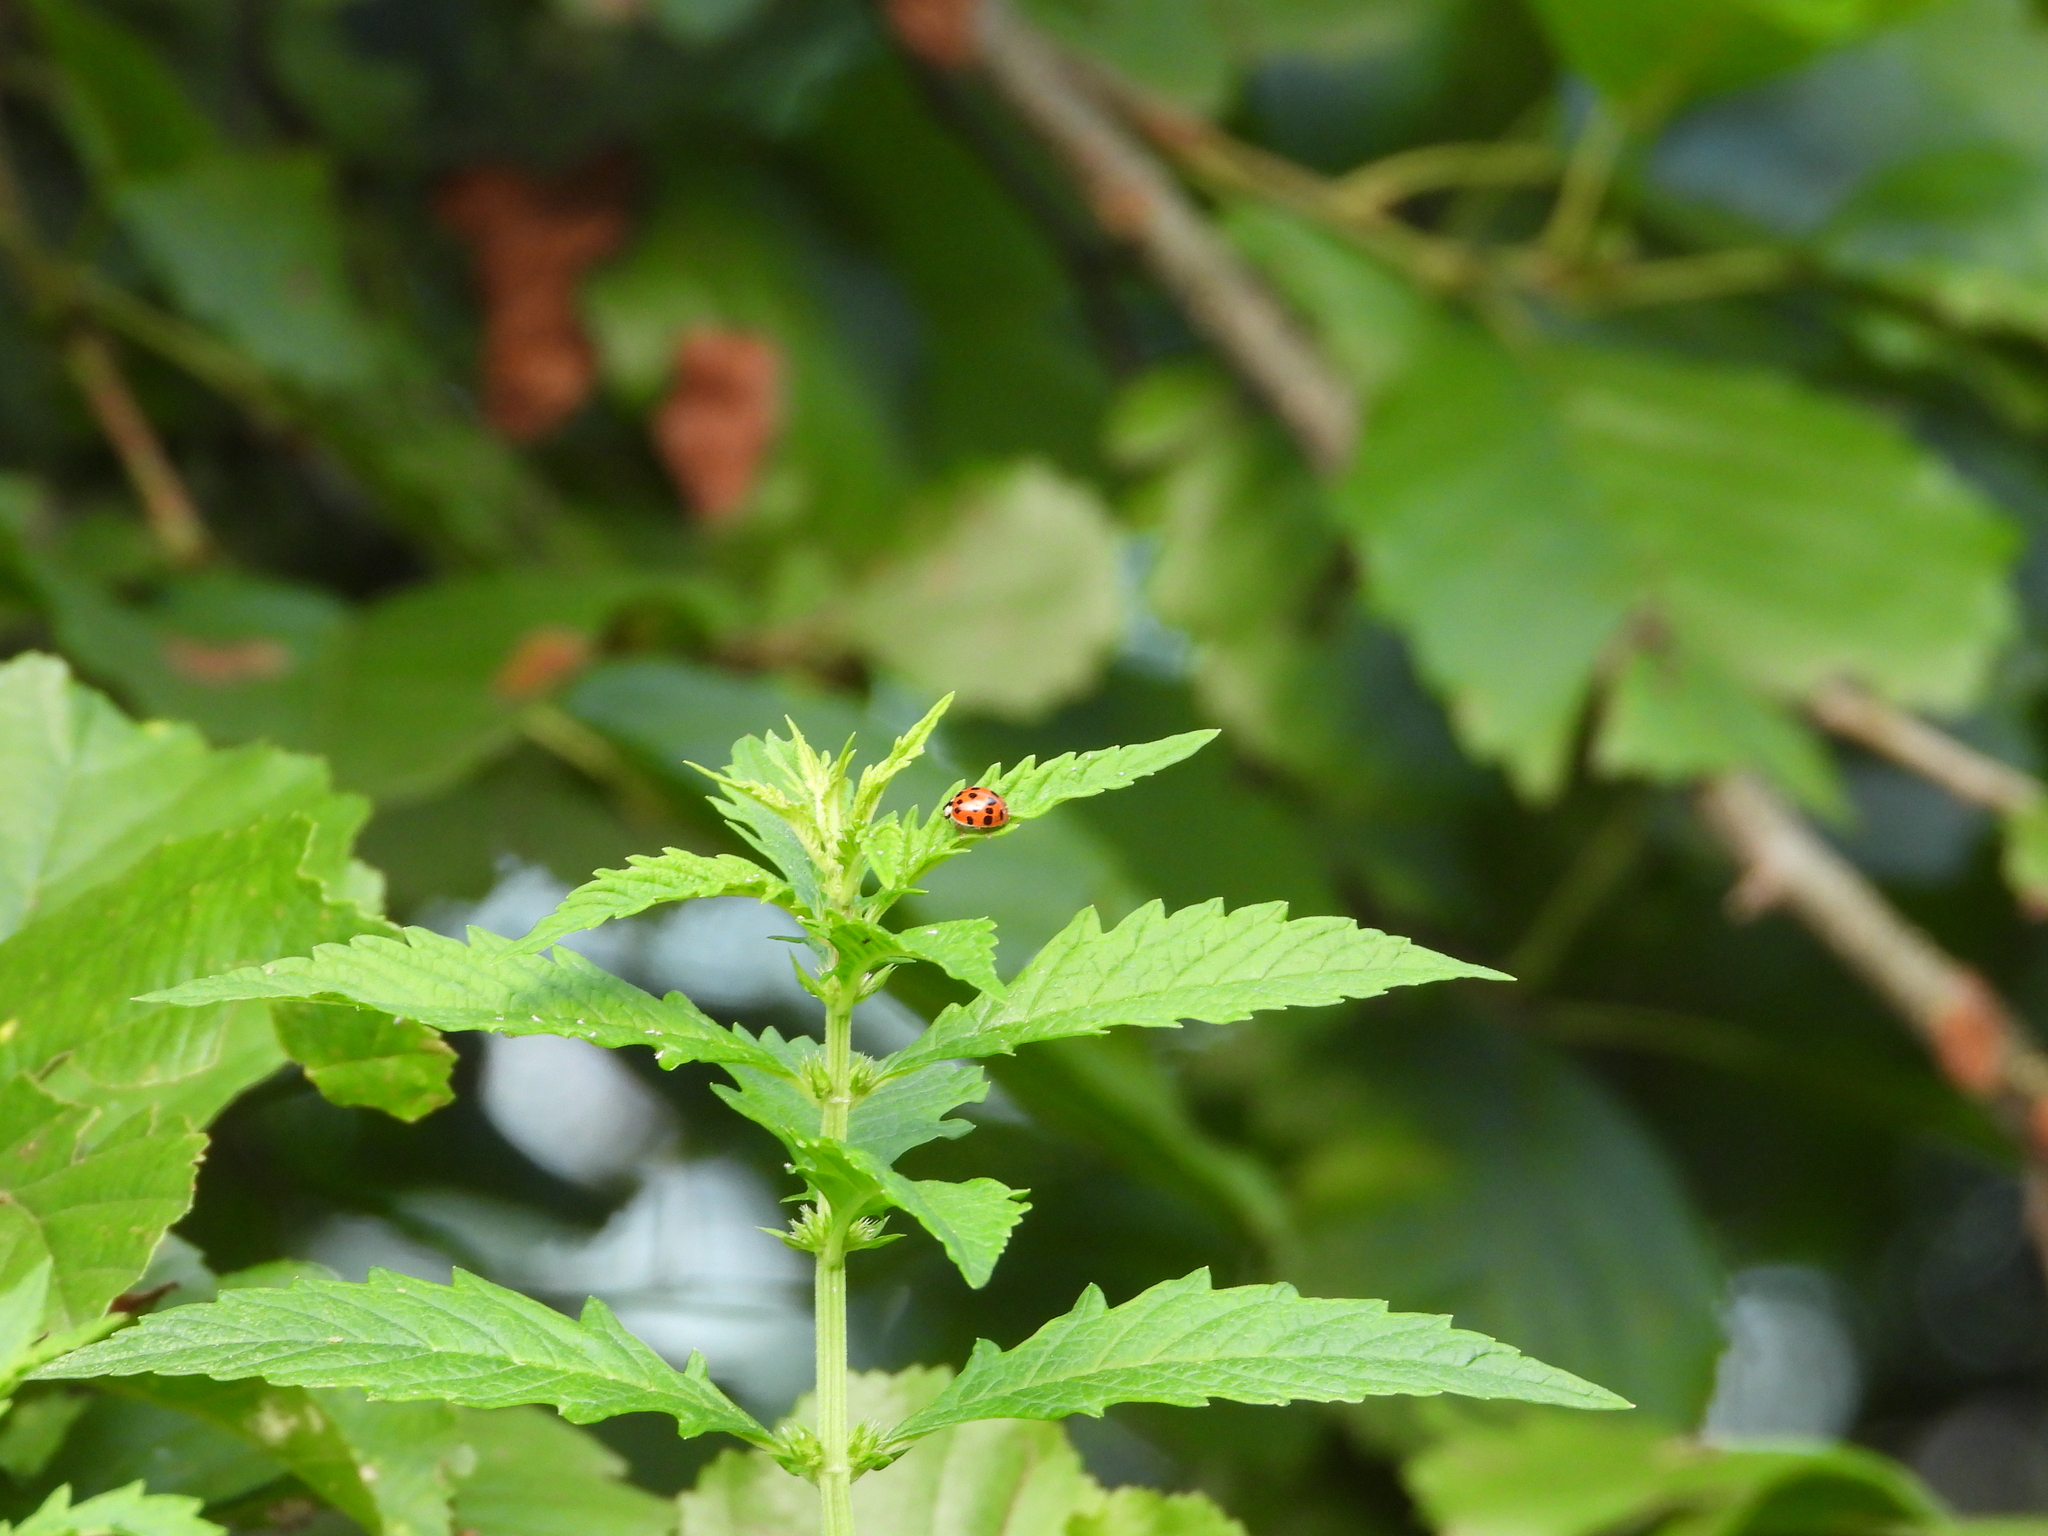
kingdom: Animalia
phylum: Arthropoda
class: Insecta
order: Coleoptera
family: Coccinellidae
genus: Harmonia
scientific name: Harmonia axyridis
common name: Harlequin ladybird
